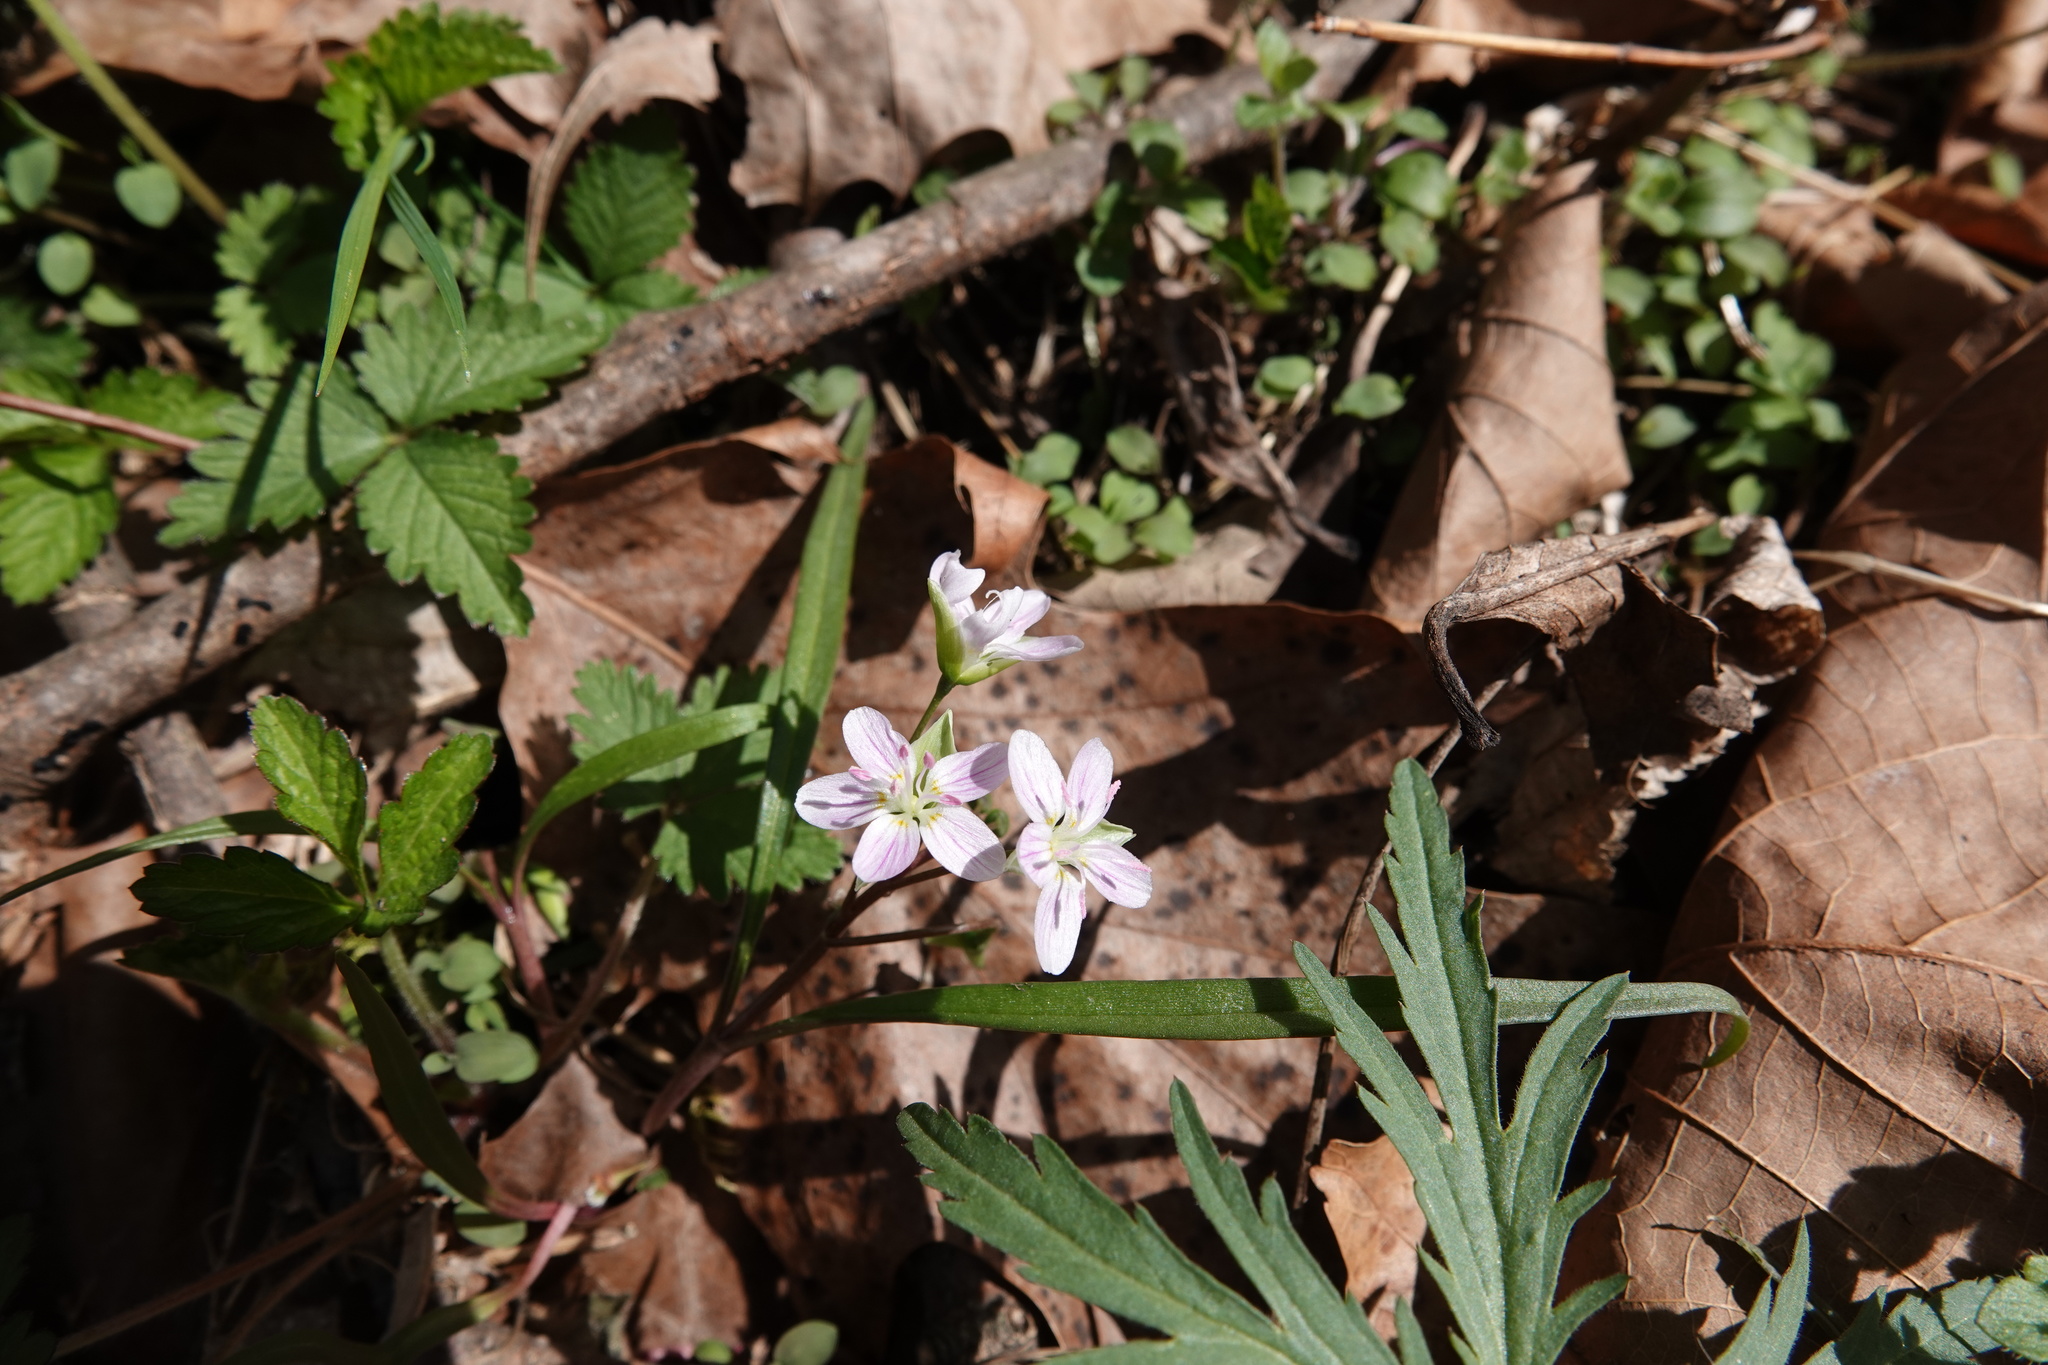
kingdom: Plantae
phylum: Tracheophyta
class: Magnoliopsida
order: Caryophyllales
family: Montiaceae
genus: Claytonia
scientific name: Claytonia virginica
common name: Virginia springbeauty
